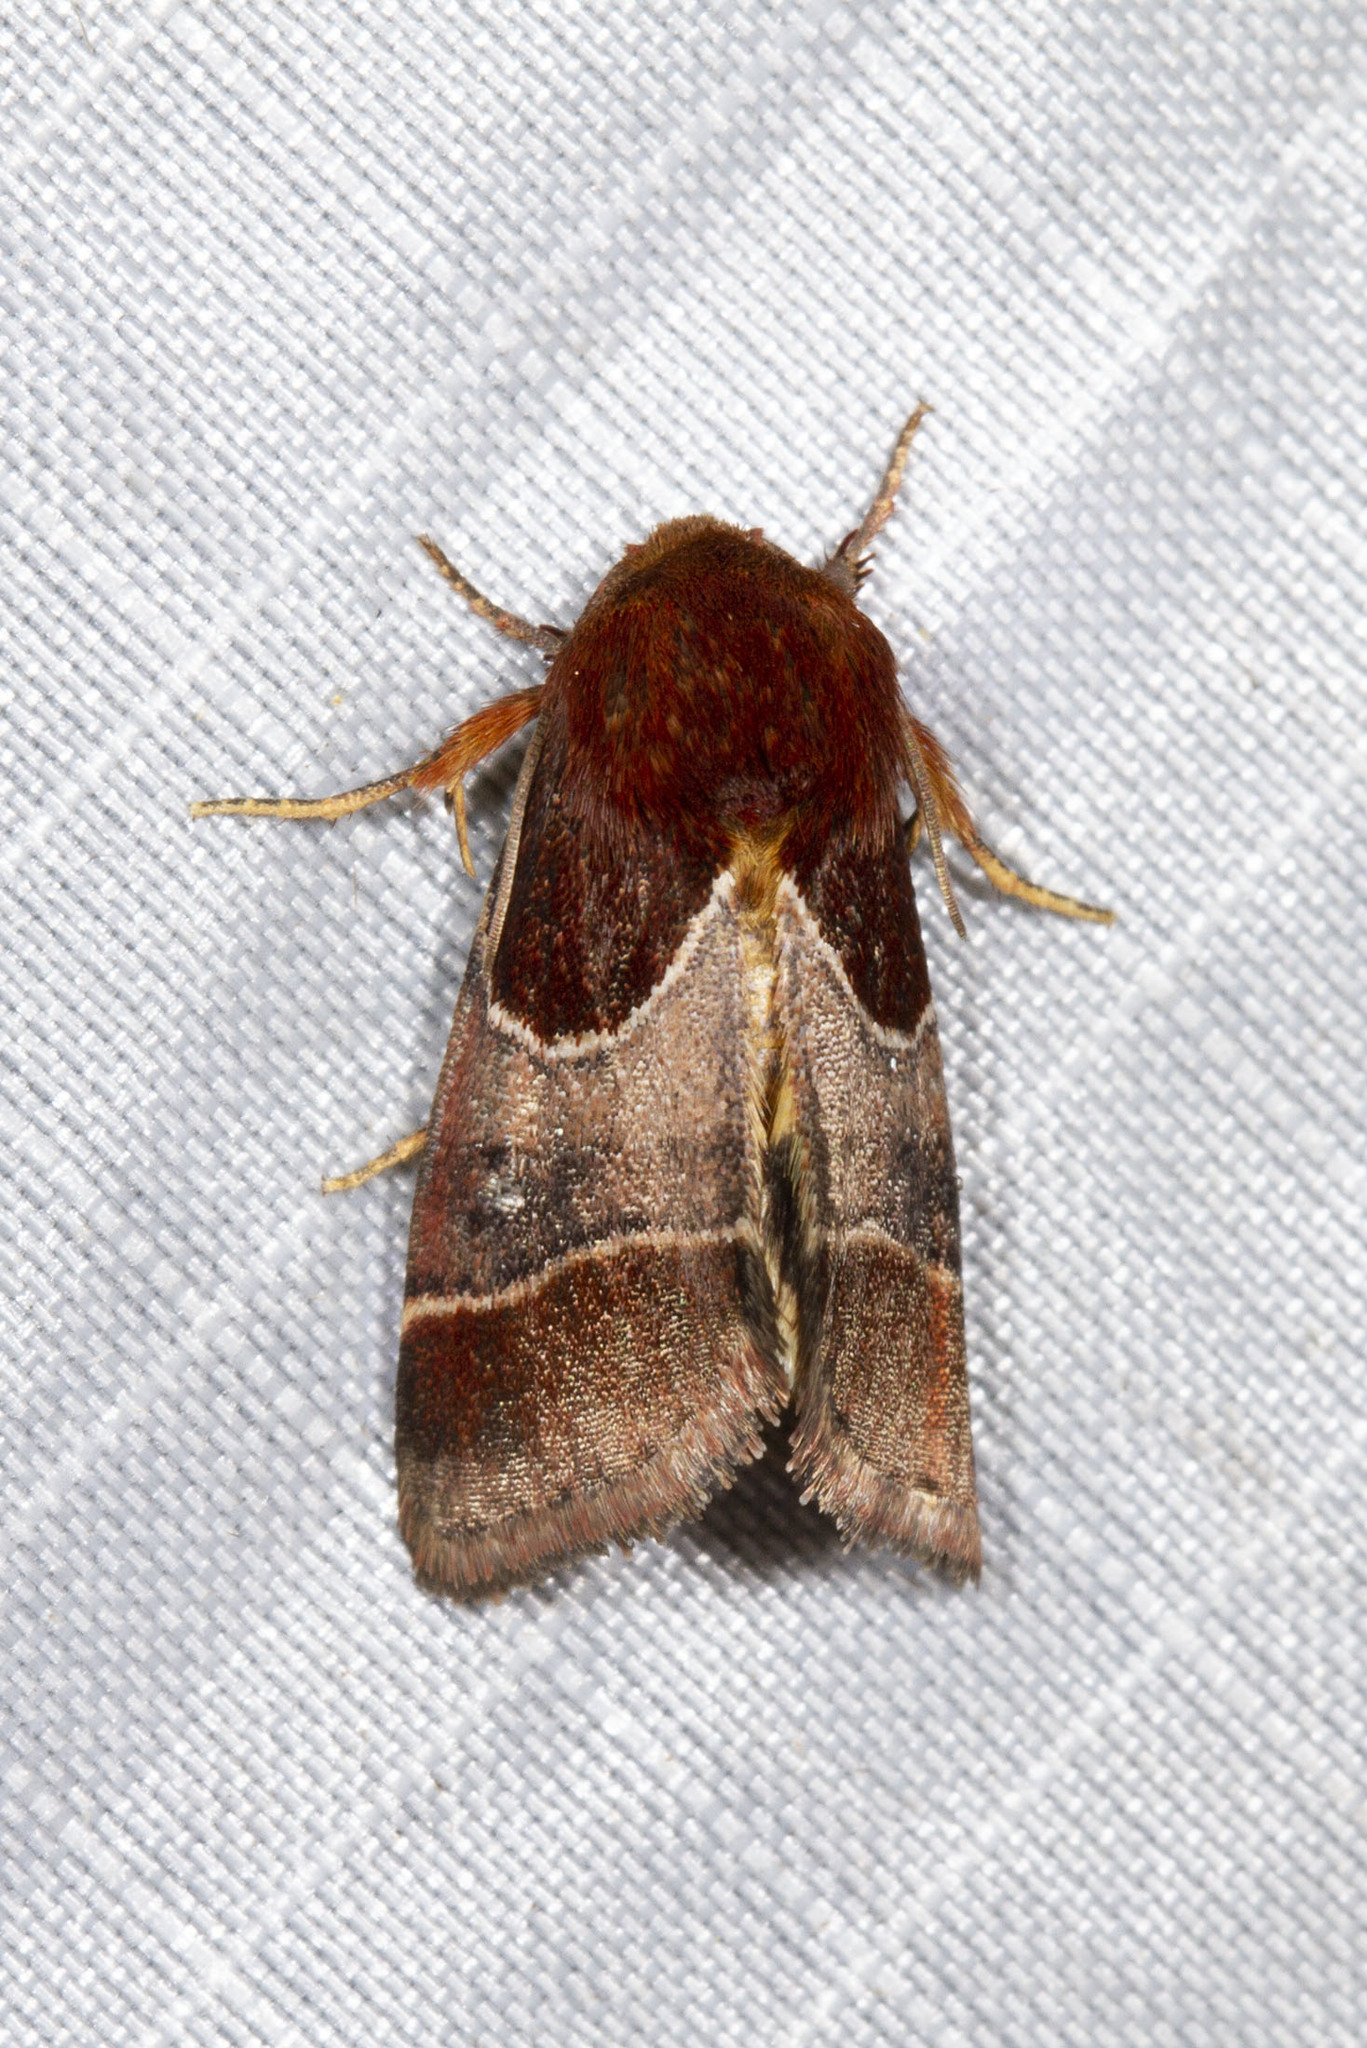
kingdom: Animalia
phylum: Arthropoda
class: Insecta
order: Lepidoptera
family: Noctuidae
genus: Schinia
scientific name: Schinia arcigera
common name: Arcigera flower moth
